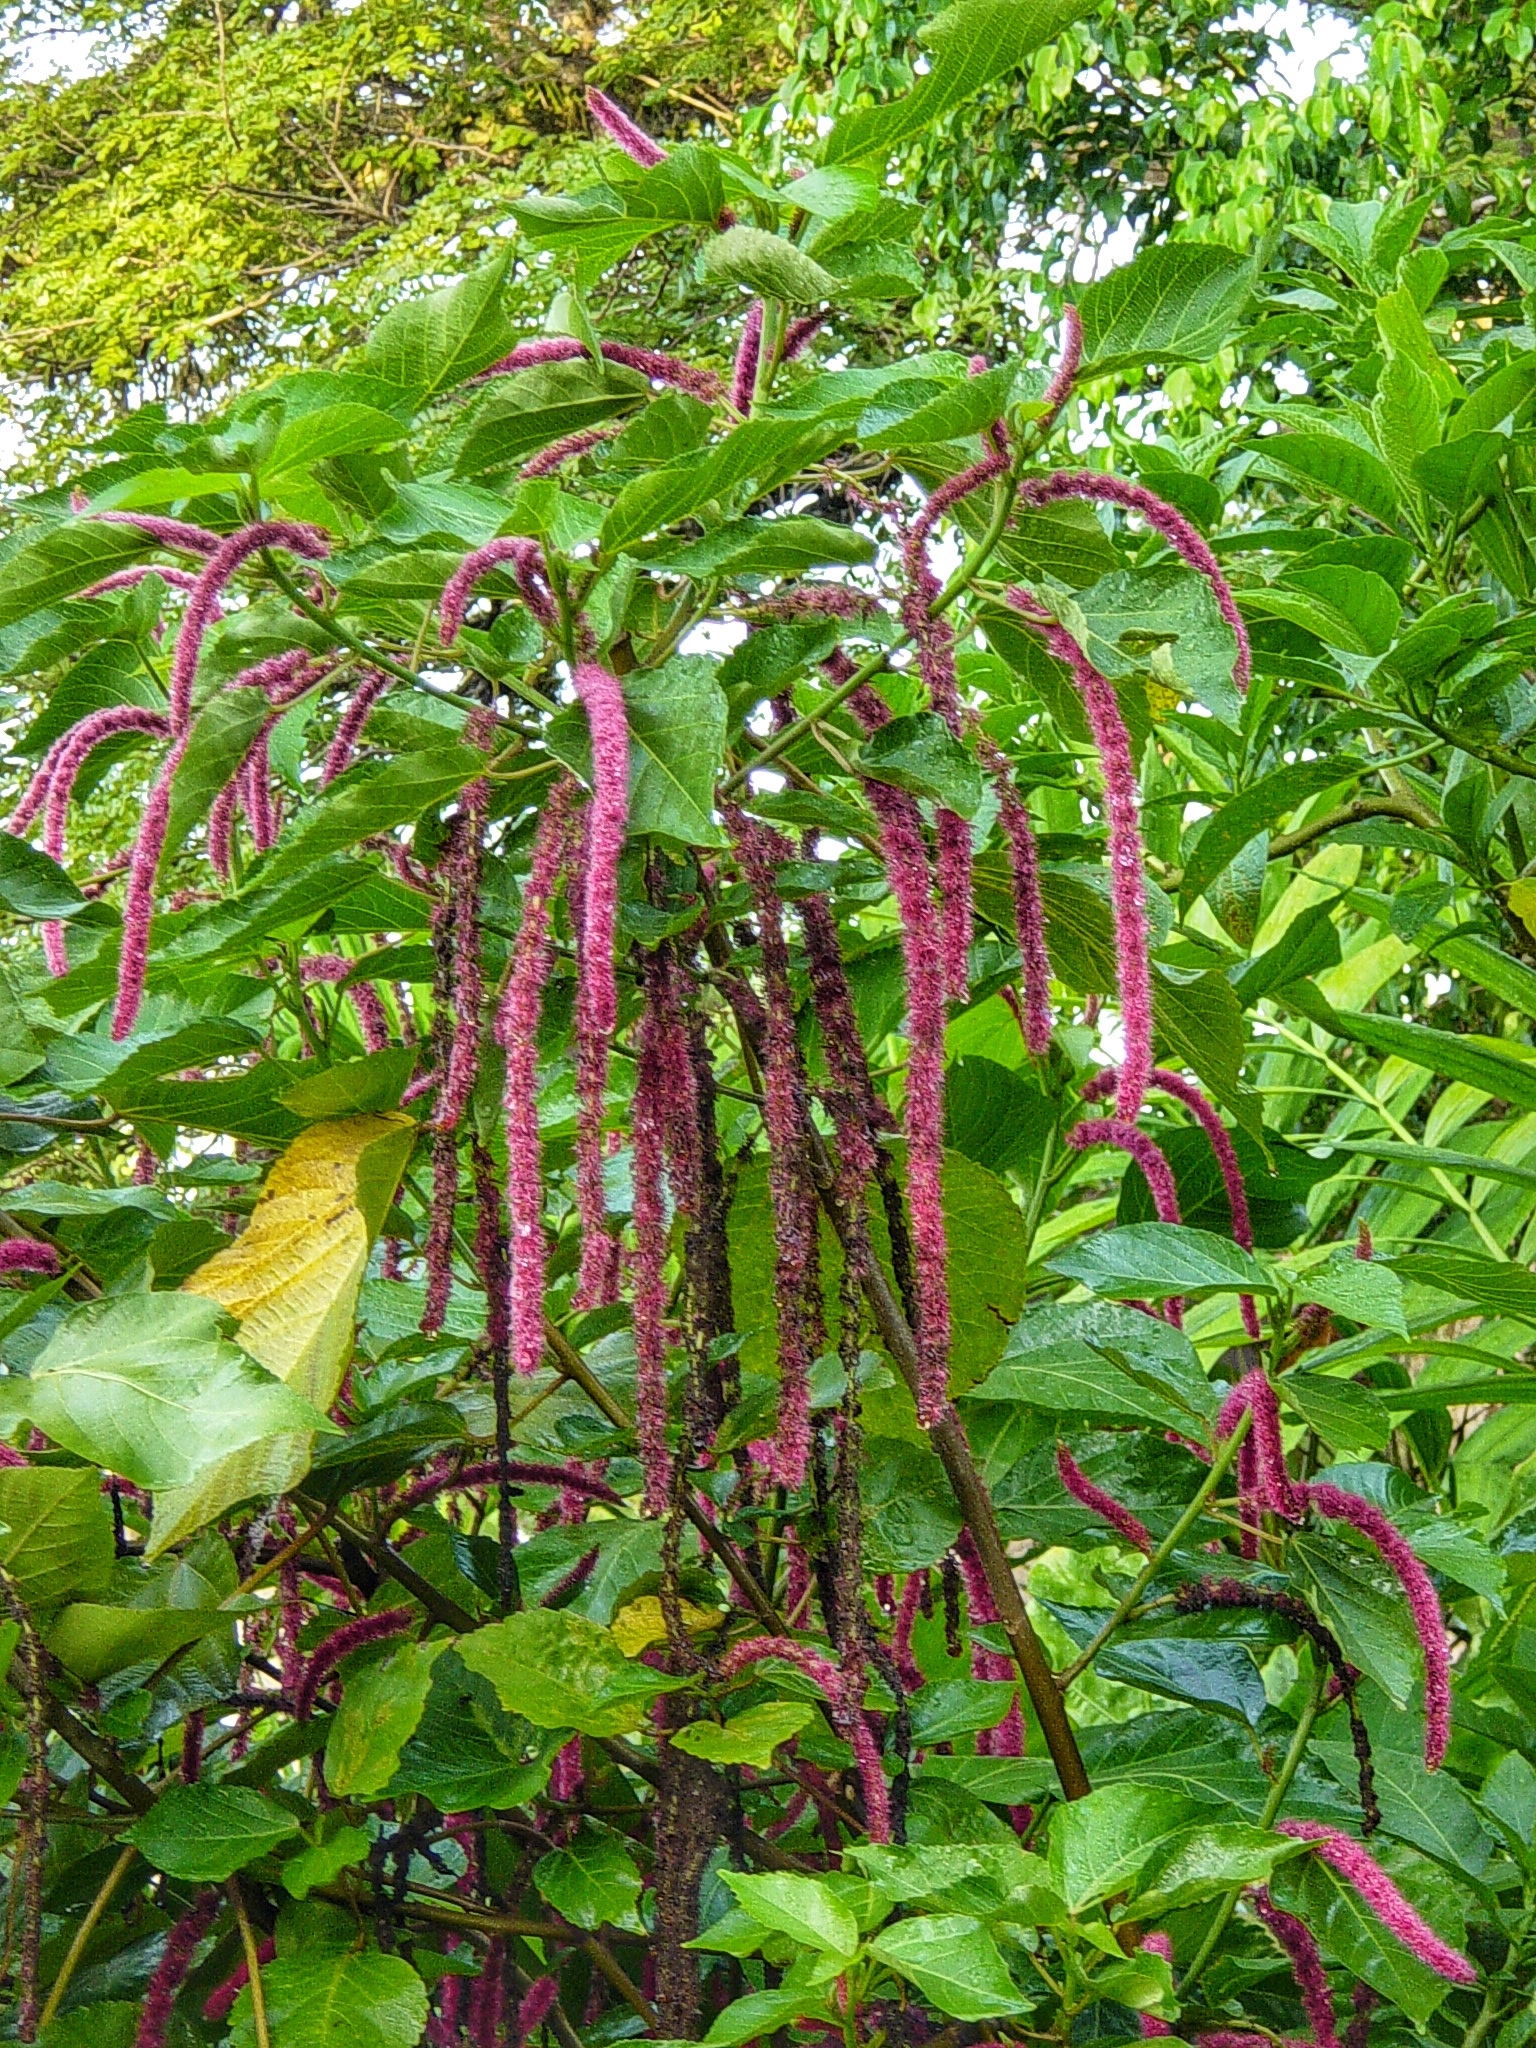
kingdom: Plantae
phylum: Tracheophyta
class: Magnoliopsida
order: Malpighiales
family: Euphorbiaceae
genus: Acalypha
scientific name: Acalypha hispida
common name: Chenilleplant
